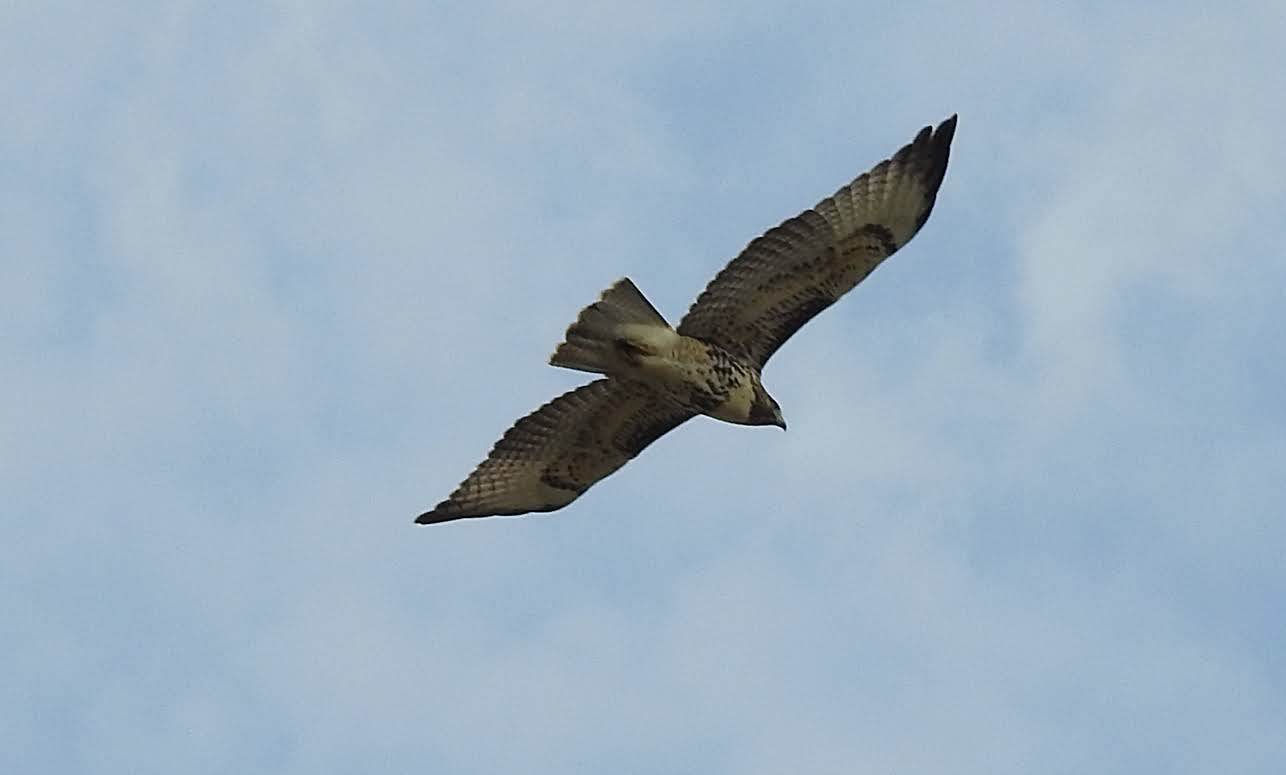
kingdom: Animalia
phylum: Chordata
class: Aves
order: Accipitriformes
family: Accipitridae
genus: Buteo
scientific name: Buteo jamaicensis
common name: Red-tailed hawk
